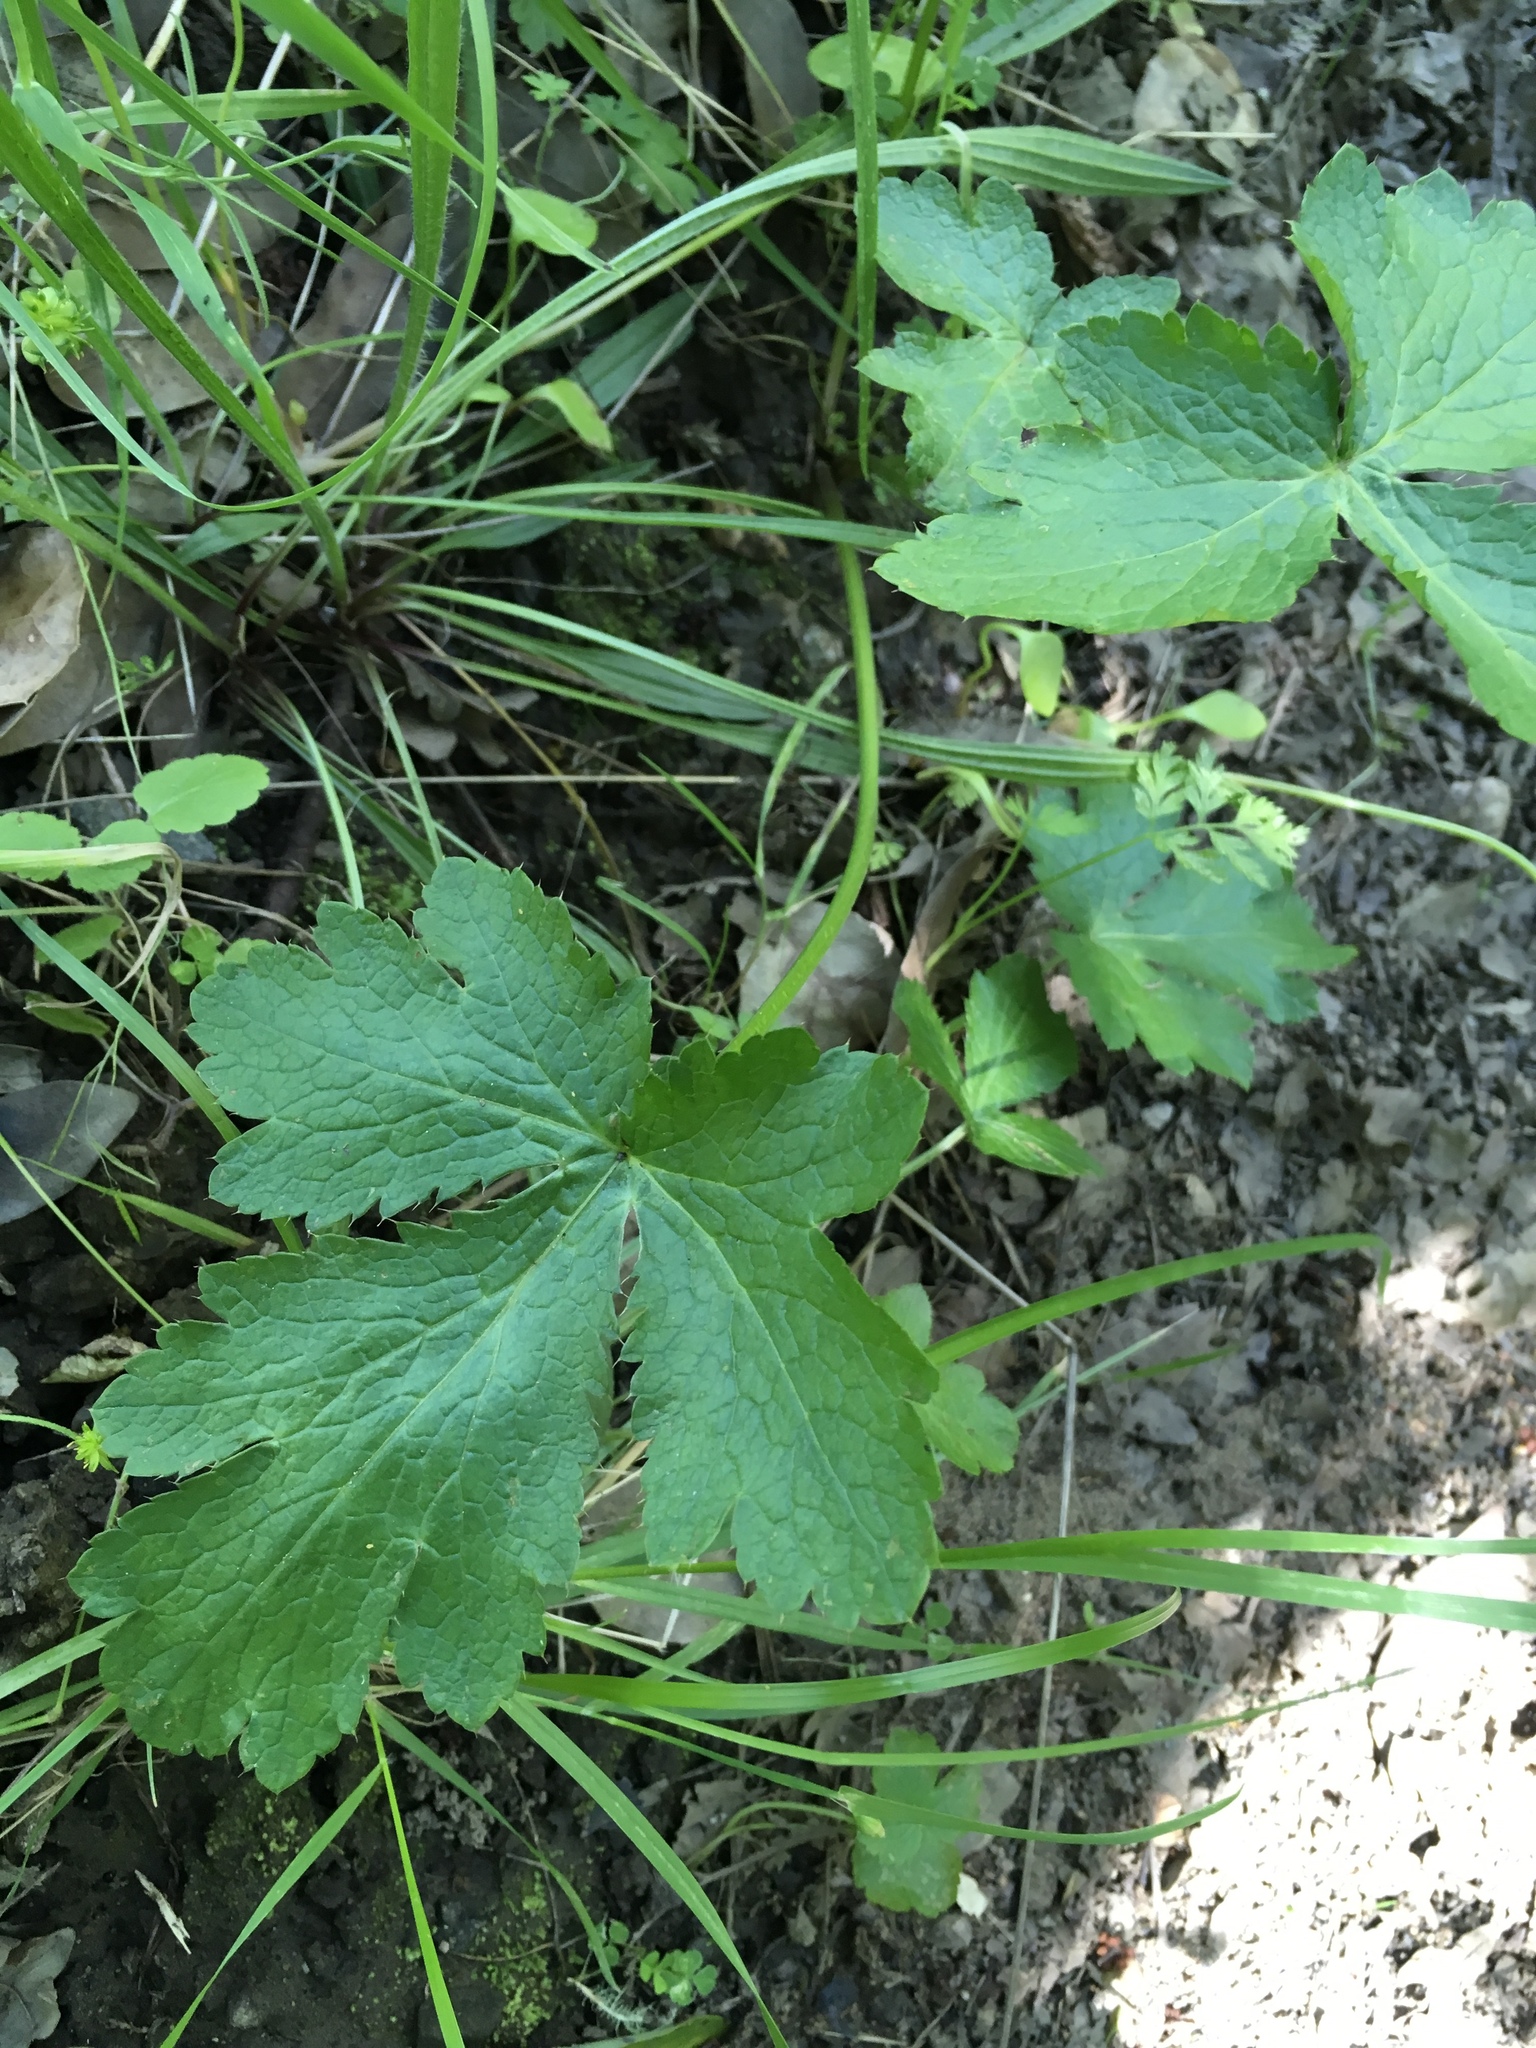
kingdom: Plantae
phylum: Tracheophyta
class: Magnoliopsida
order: Apiales
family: Apiaceae
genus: Sanicula
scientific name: Sanicula crassicaulis
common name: Western snakeroot
